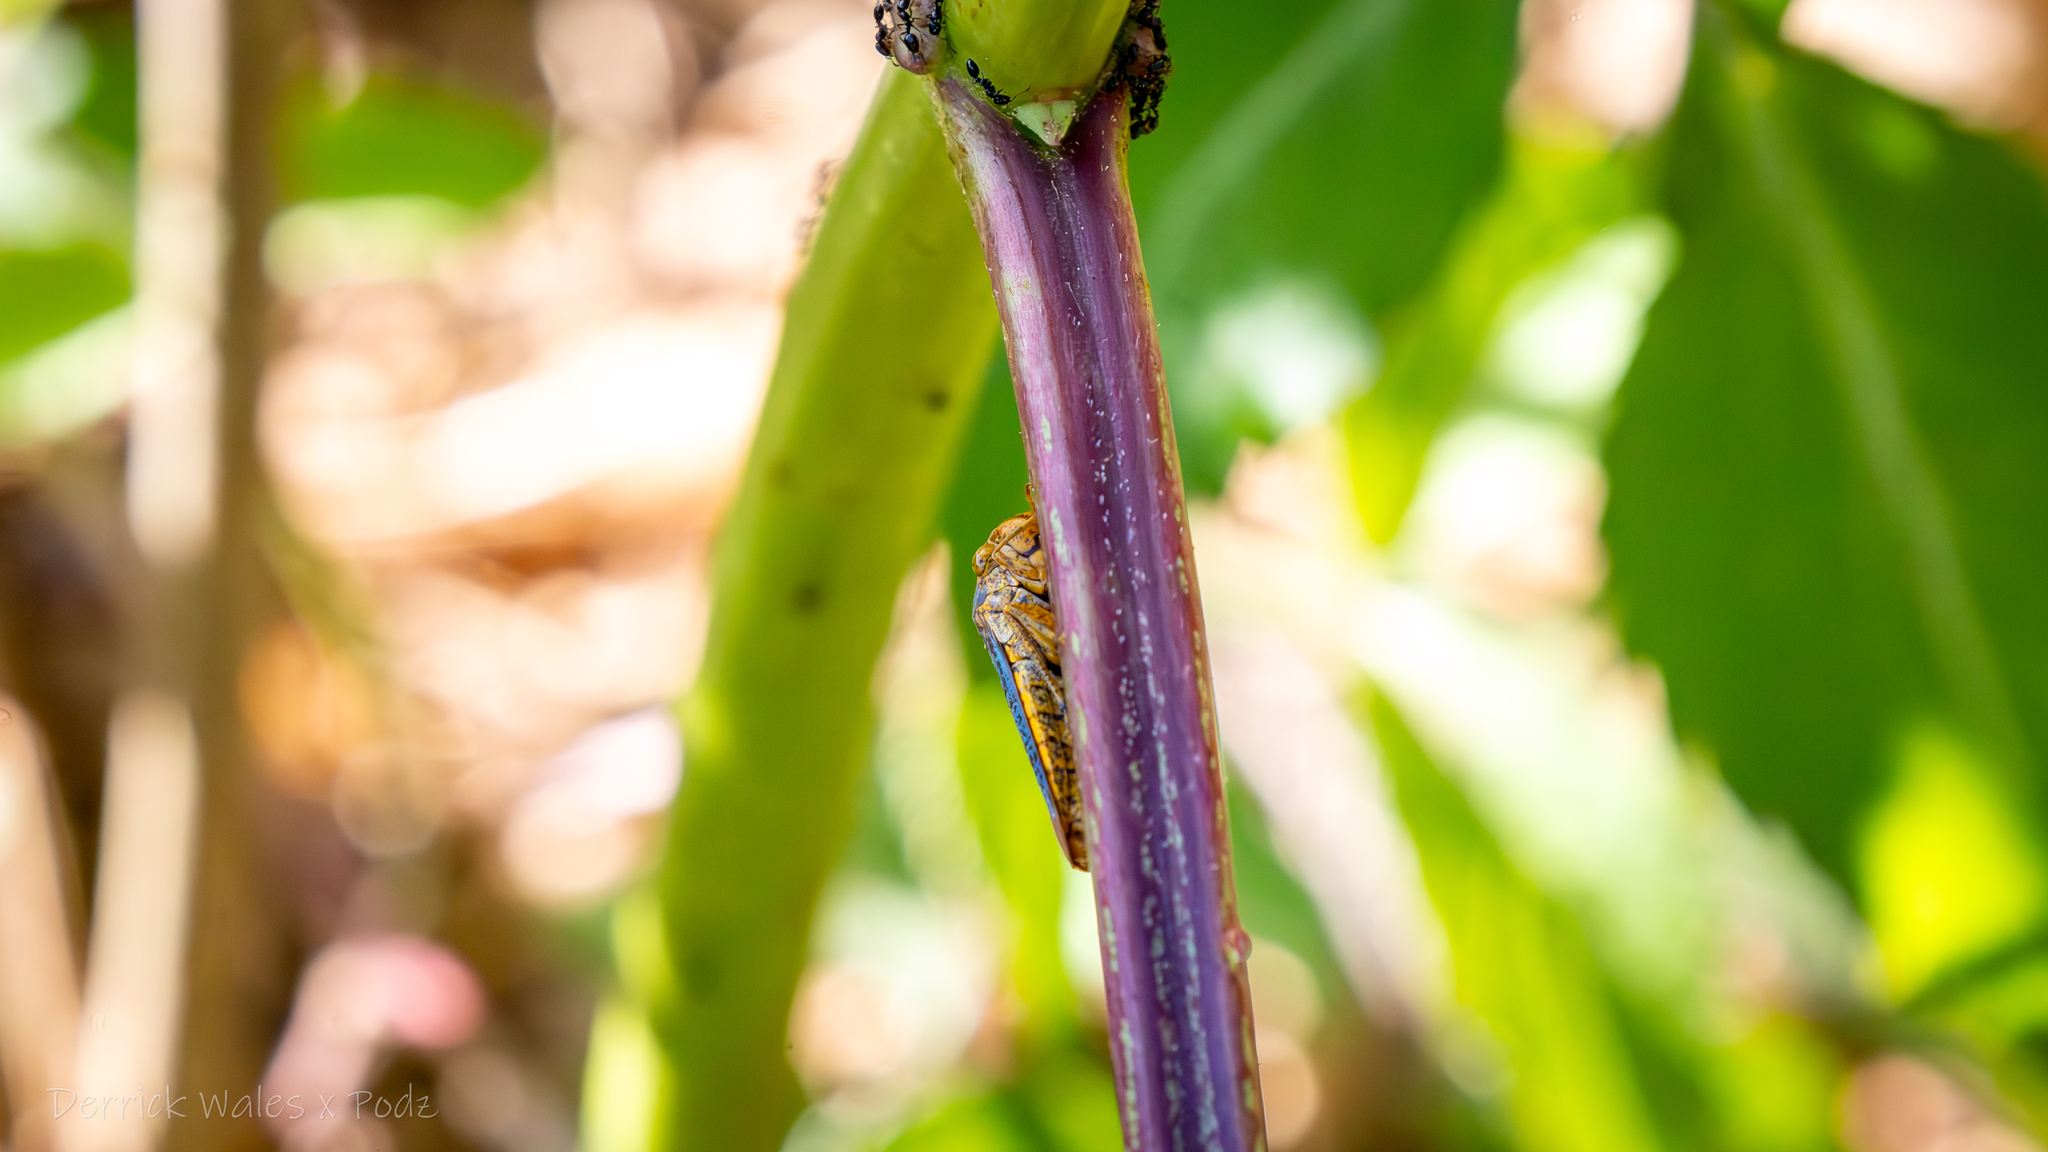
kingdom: Animalia
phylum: Arthropoda
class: Insecta
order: Hemiptera
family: Cicadellidae
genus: Oncometopia
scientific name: Oncometopia orbona
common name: Broad-headed sharpshooter
